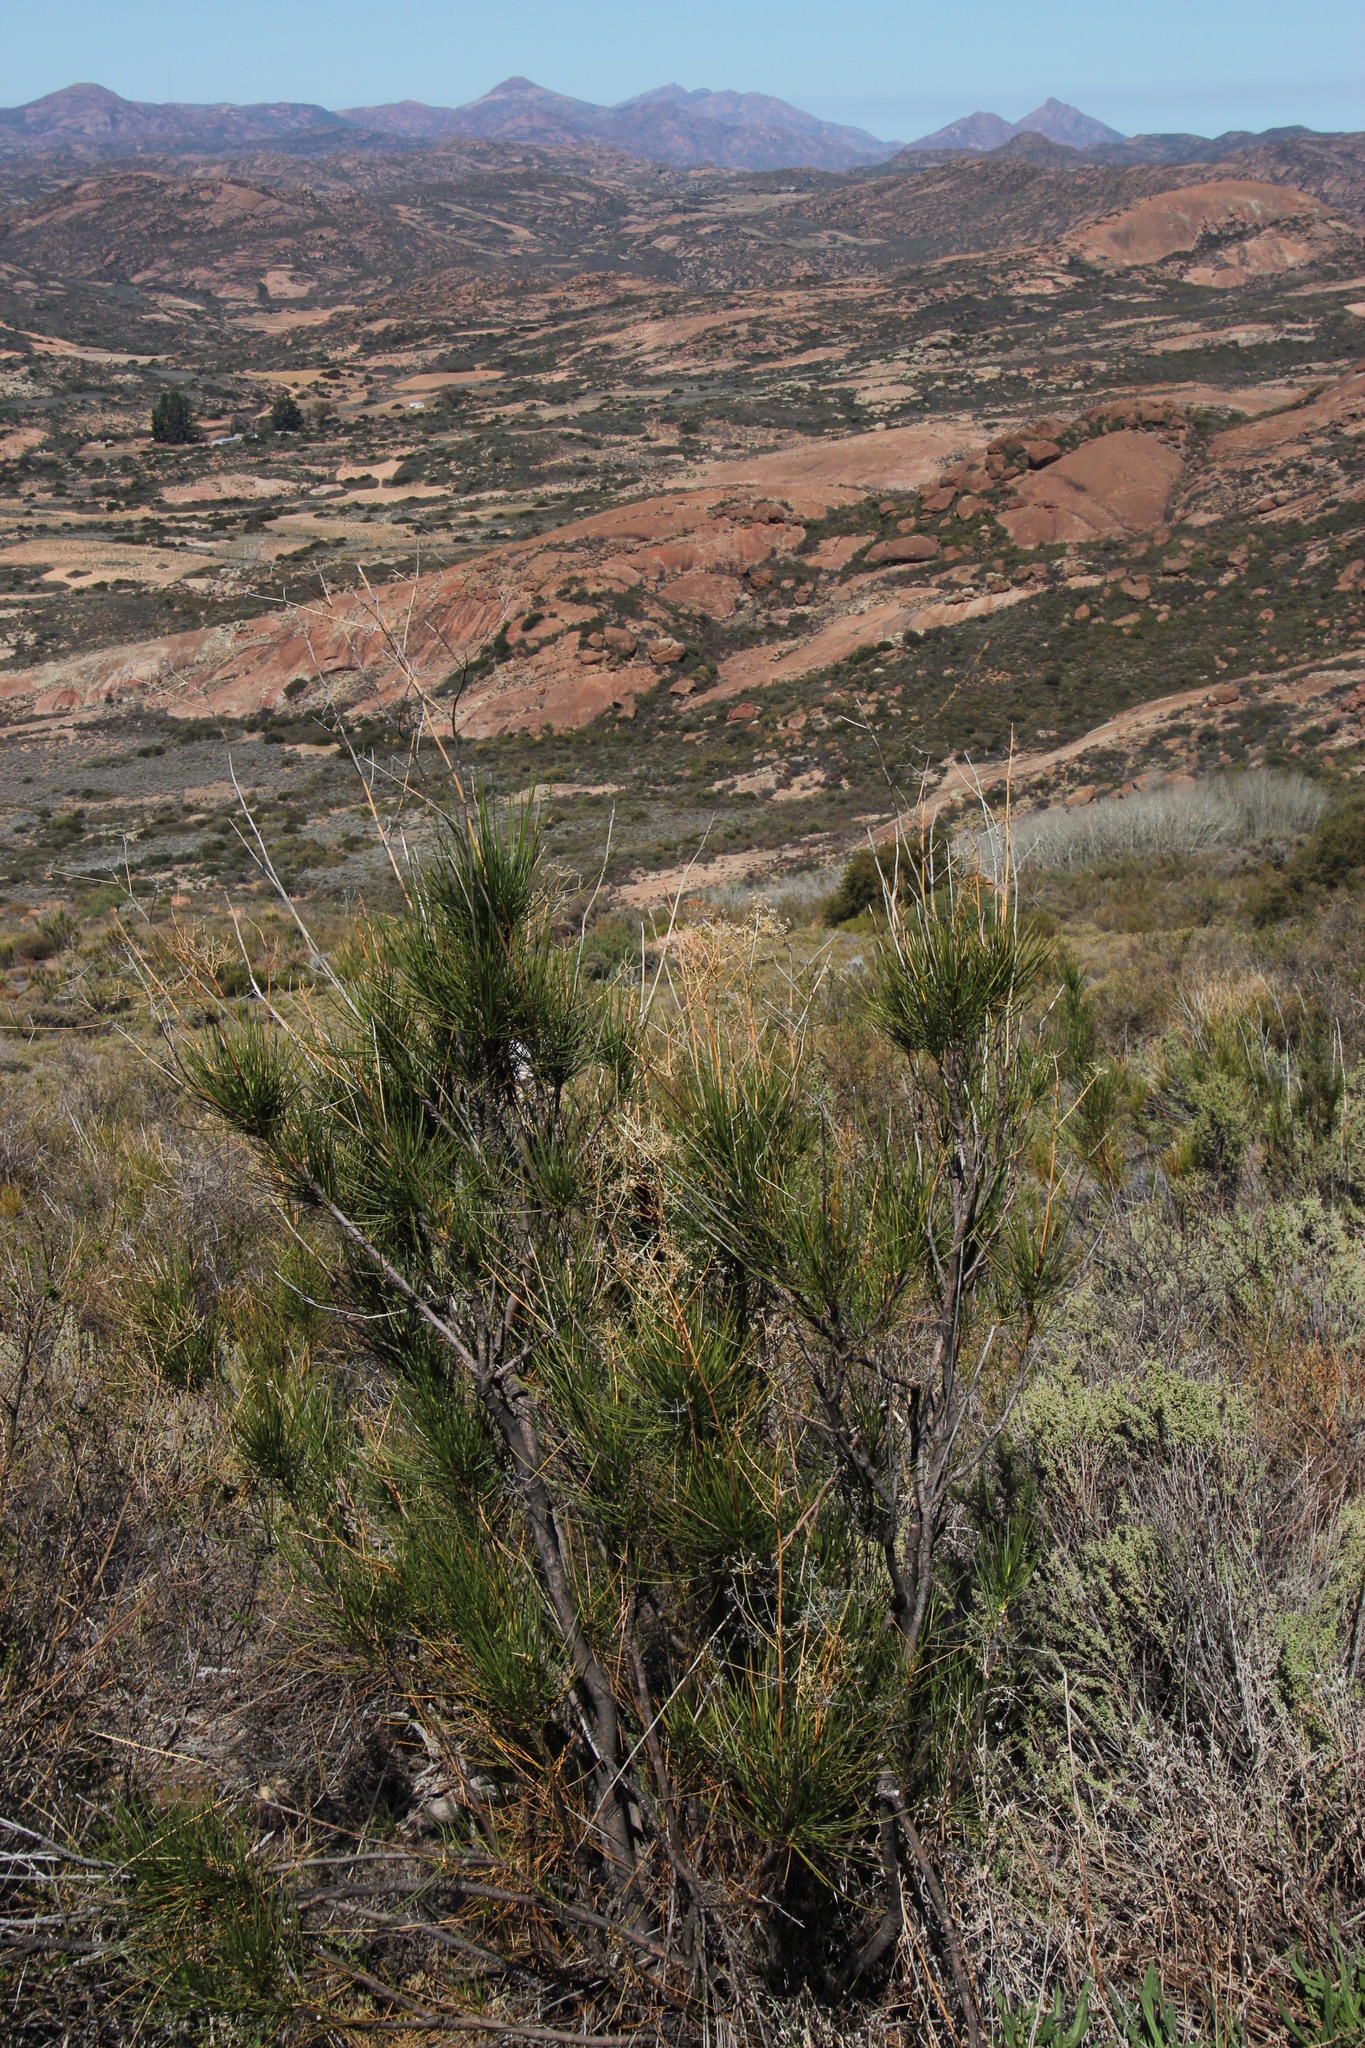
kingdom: Plantae
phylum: Tracheophyta
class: Magnoliopsida
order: Apiales
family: Apiaceae
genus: Anginon
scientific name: Anginon difforme
